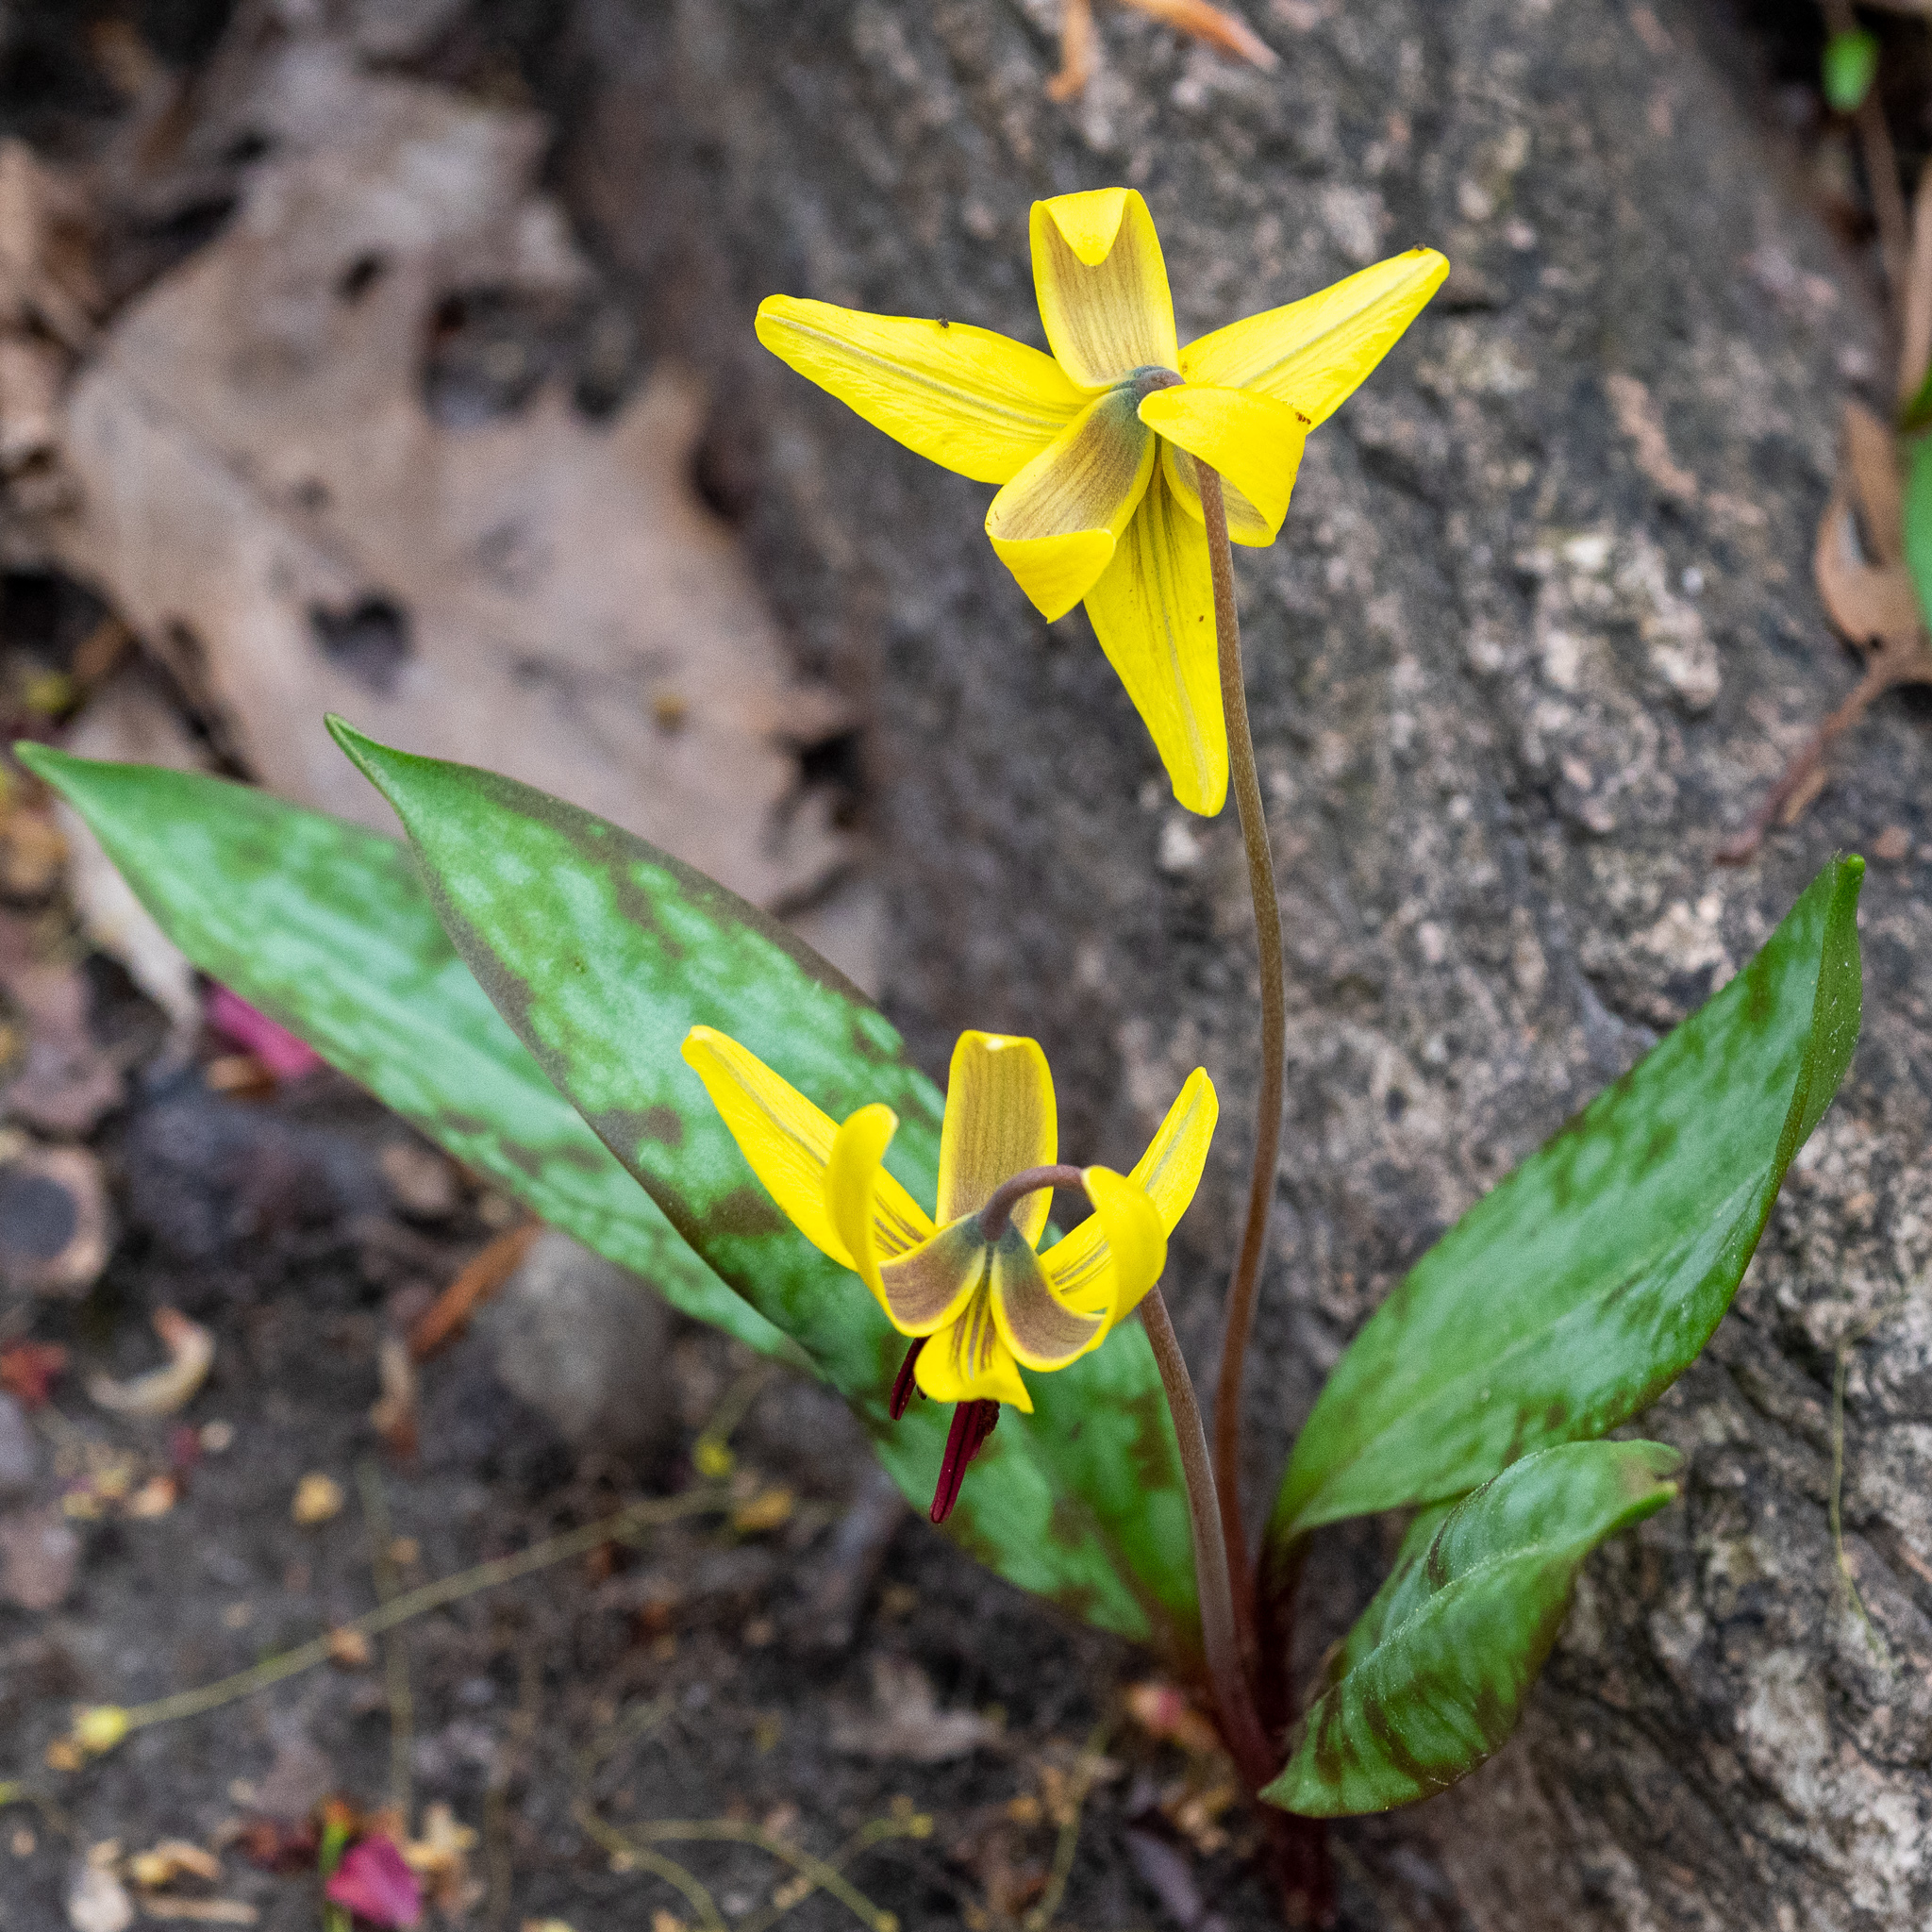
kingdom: Plantae
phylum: Tracheophyta
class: Liliopsida
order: Liliales
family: Liliaceae
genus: Erythronium
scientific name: Erythronium americanum
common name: Yellow adder's-tongue
